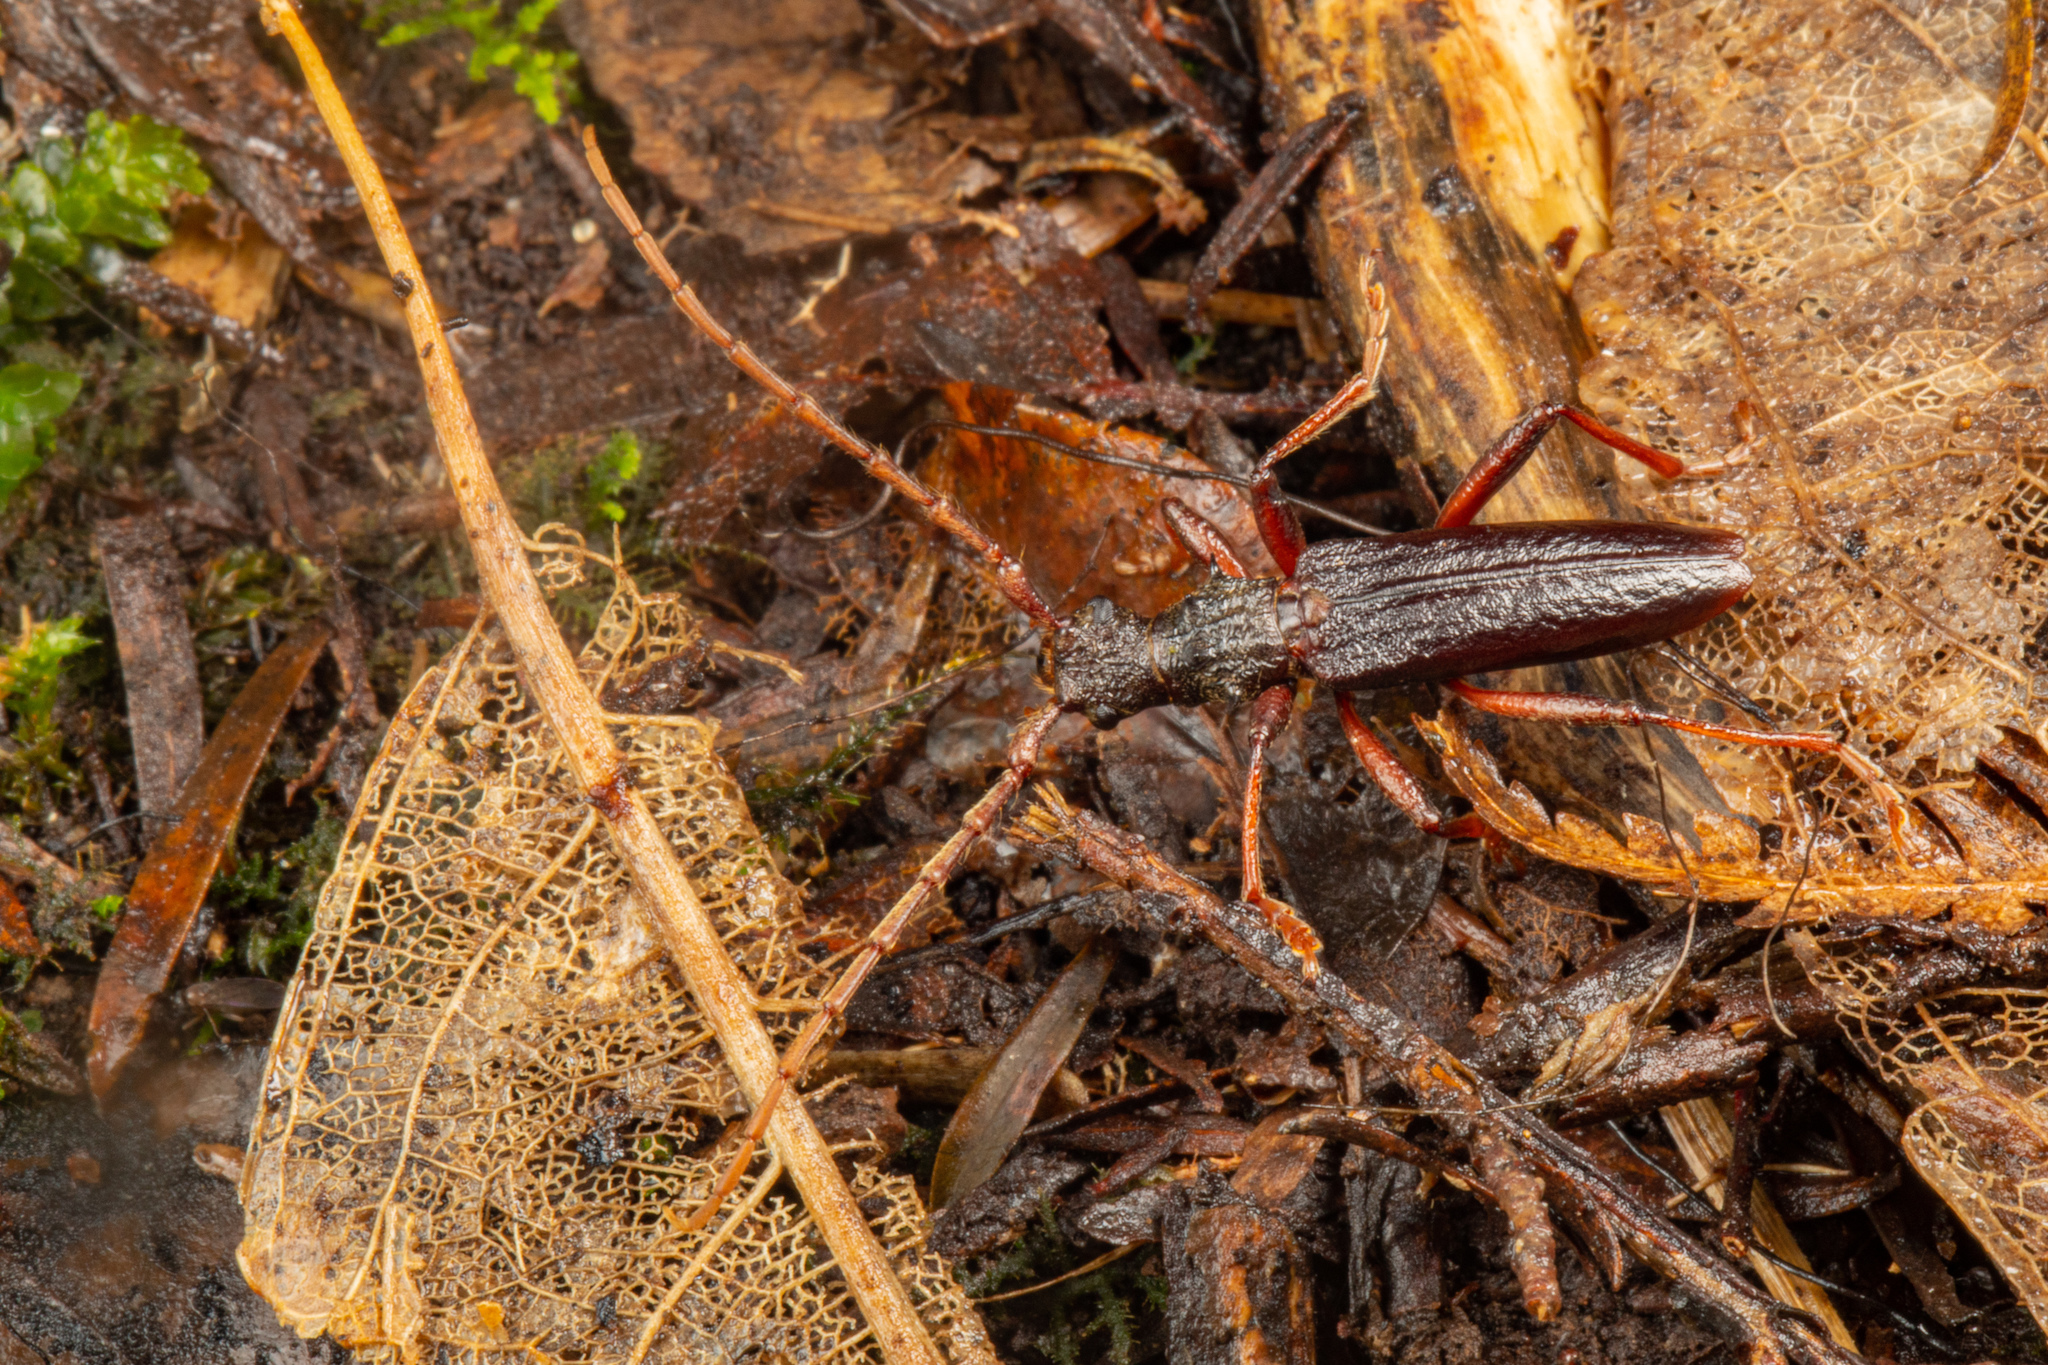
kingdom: Animalia
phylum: Arthropoda
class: Insecta
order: Coleoptera
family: Cerambycidae
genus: Nesoptychias
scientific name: Nesoptychias
